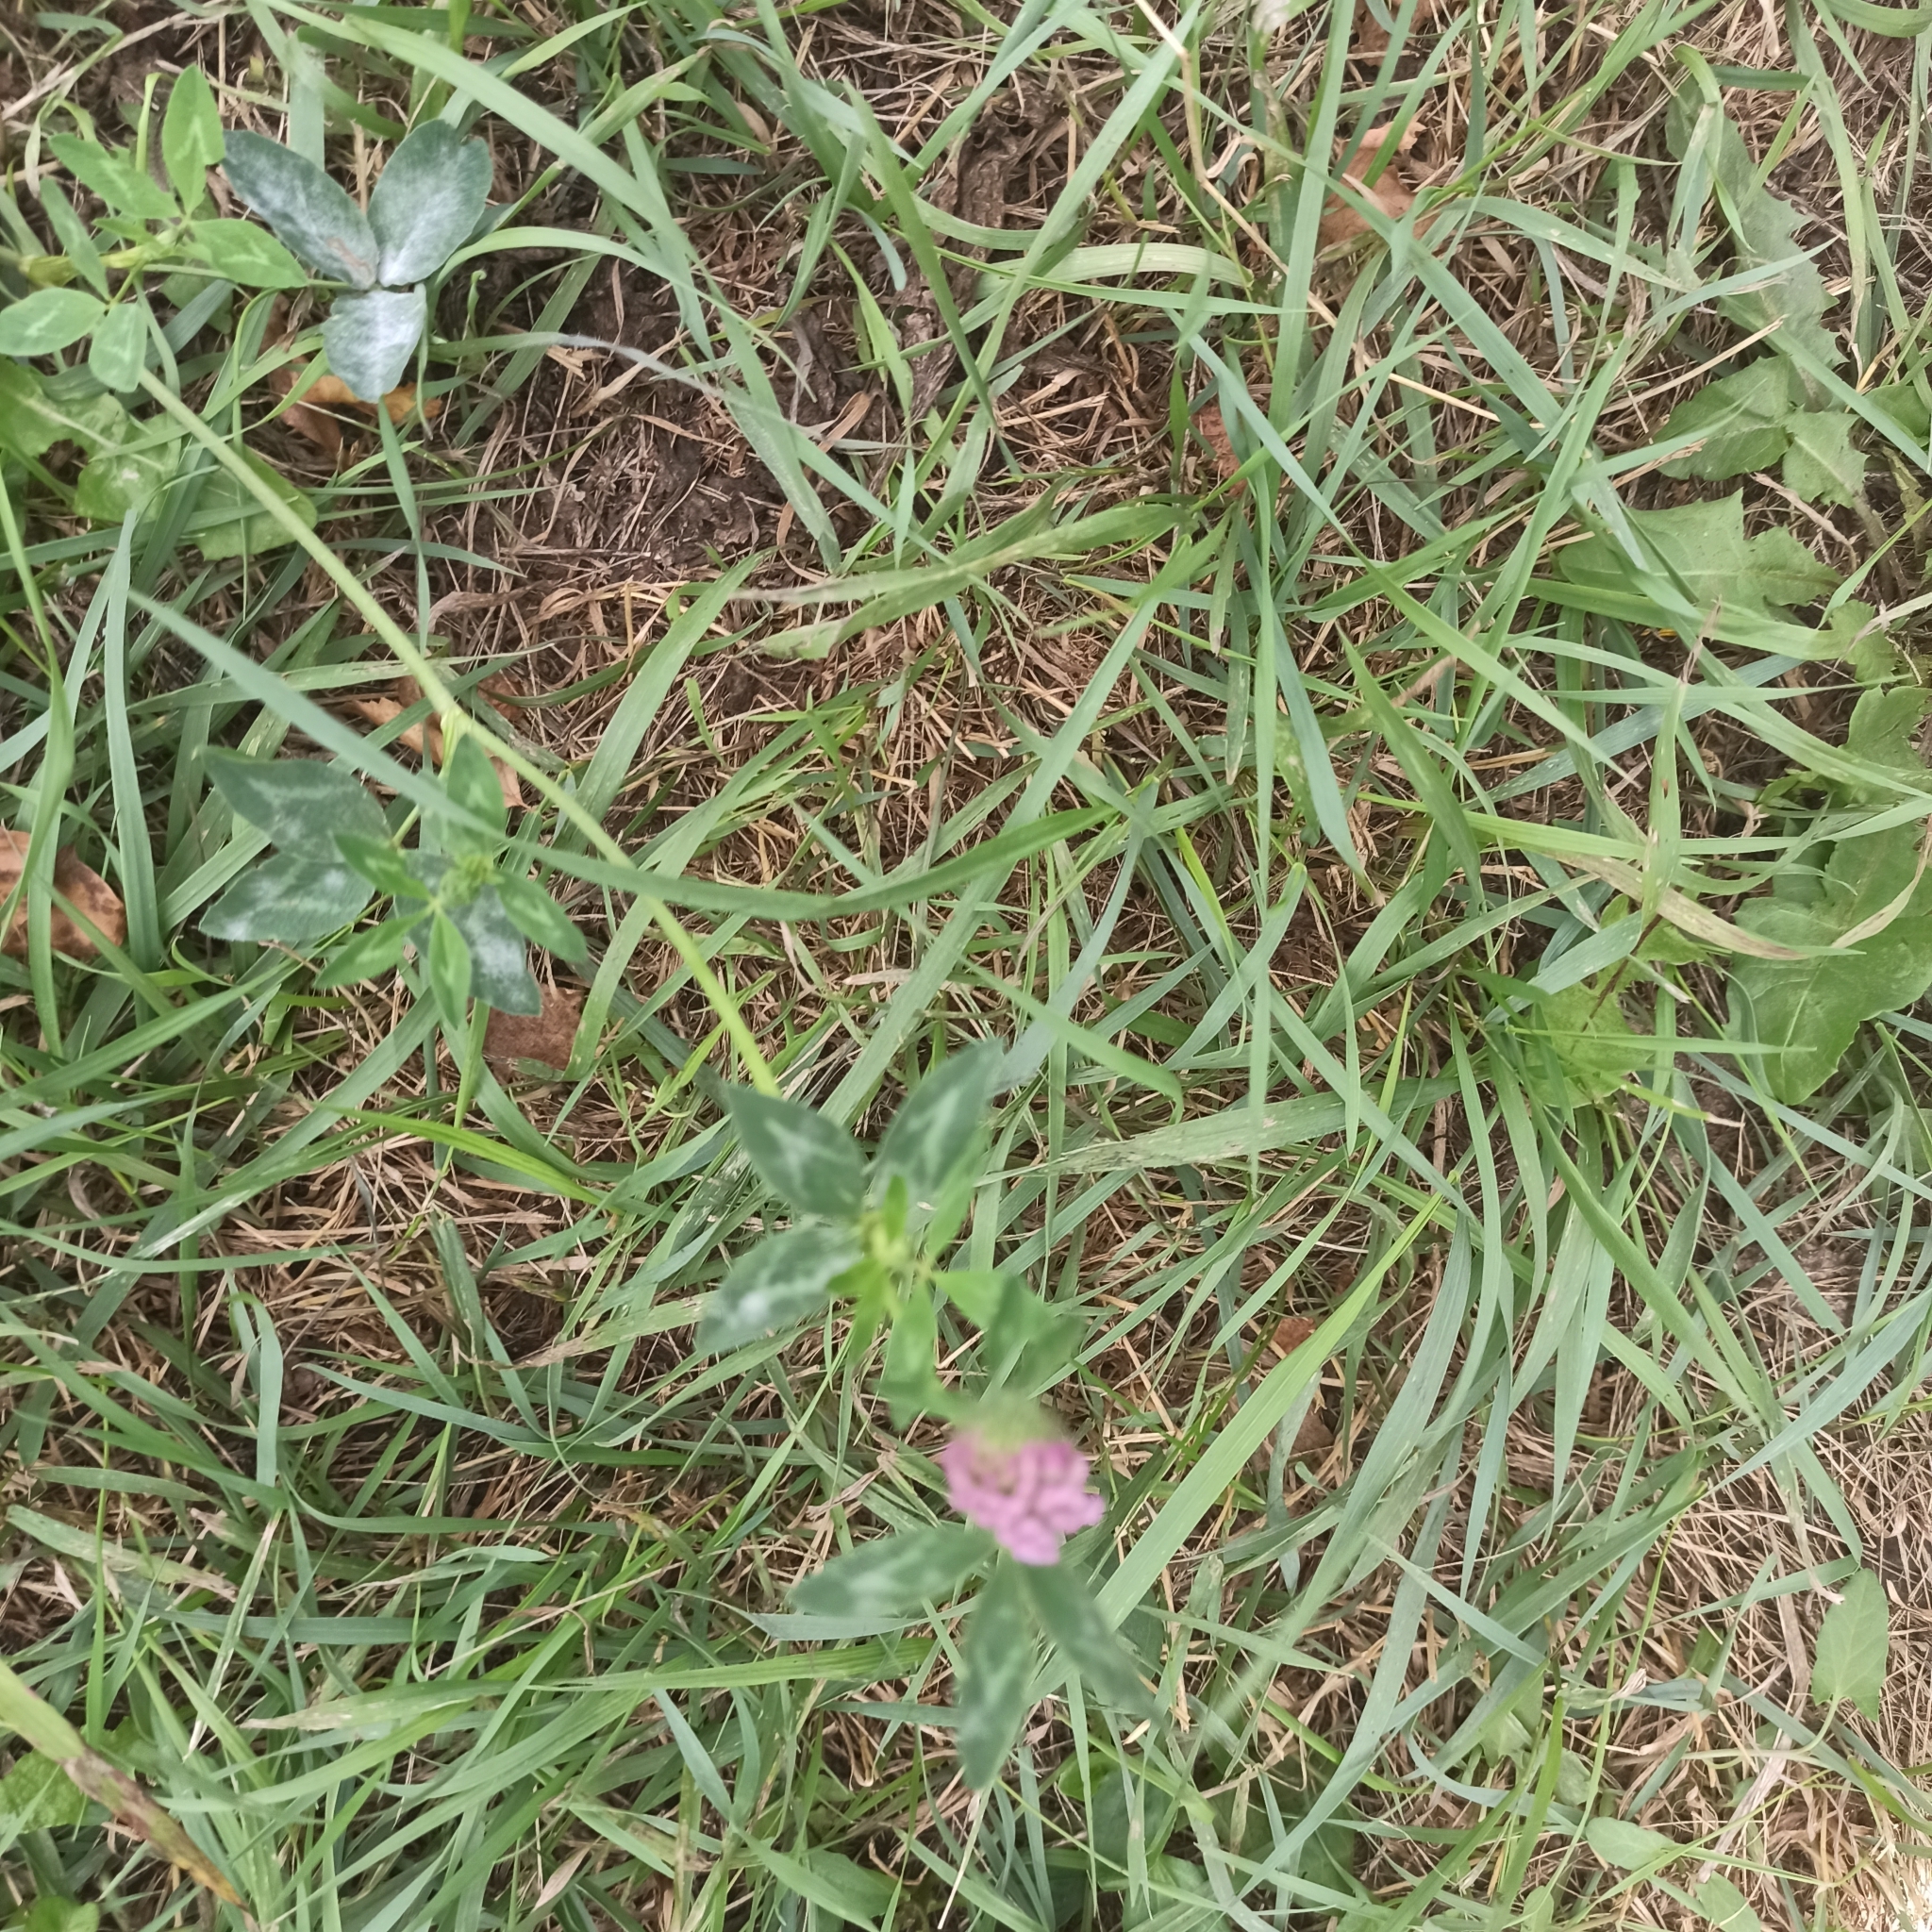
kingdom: Plantae
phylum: Tracheophyta
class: Magnoliopsida
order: Fabales
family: Fabaceae
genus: Trifolium
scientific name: Trifolium pratense
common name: Red clover
